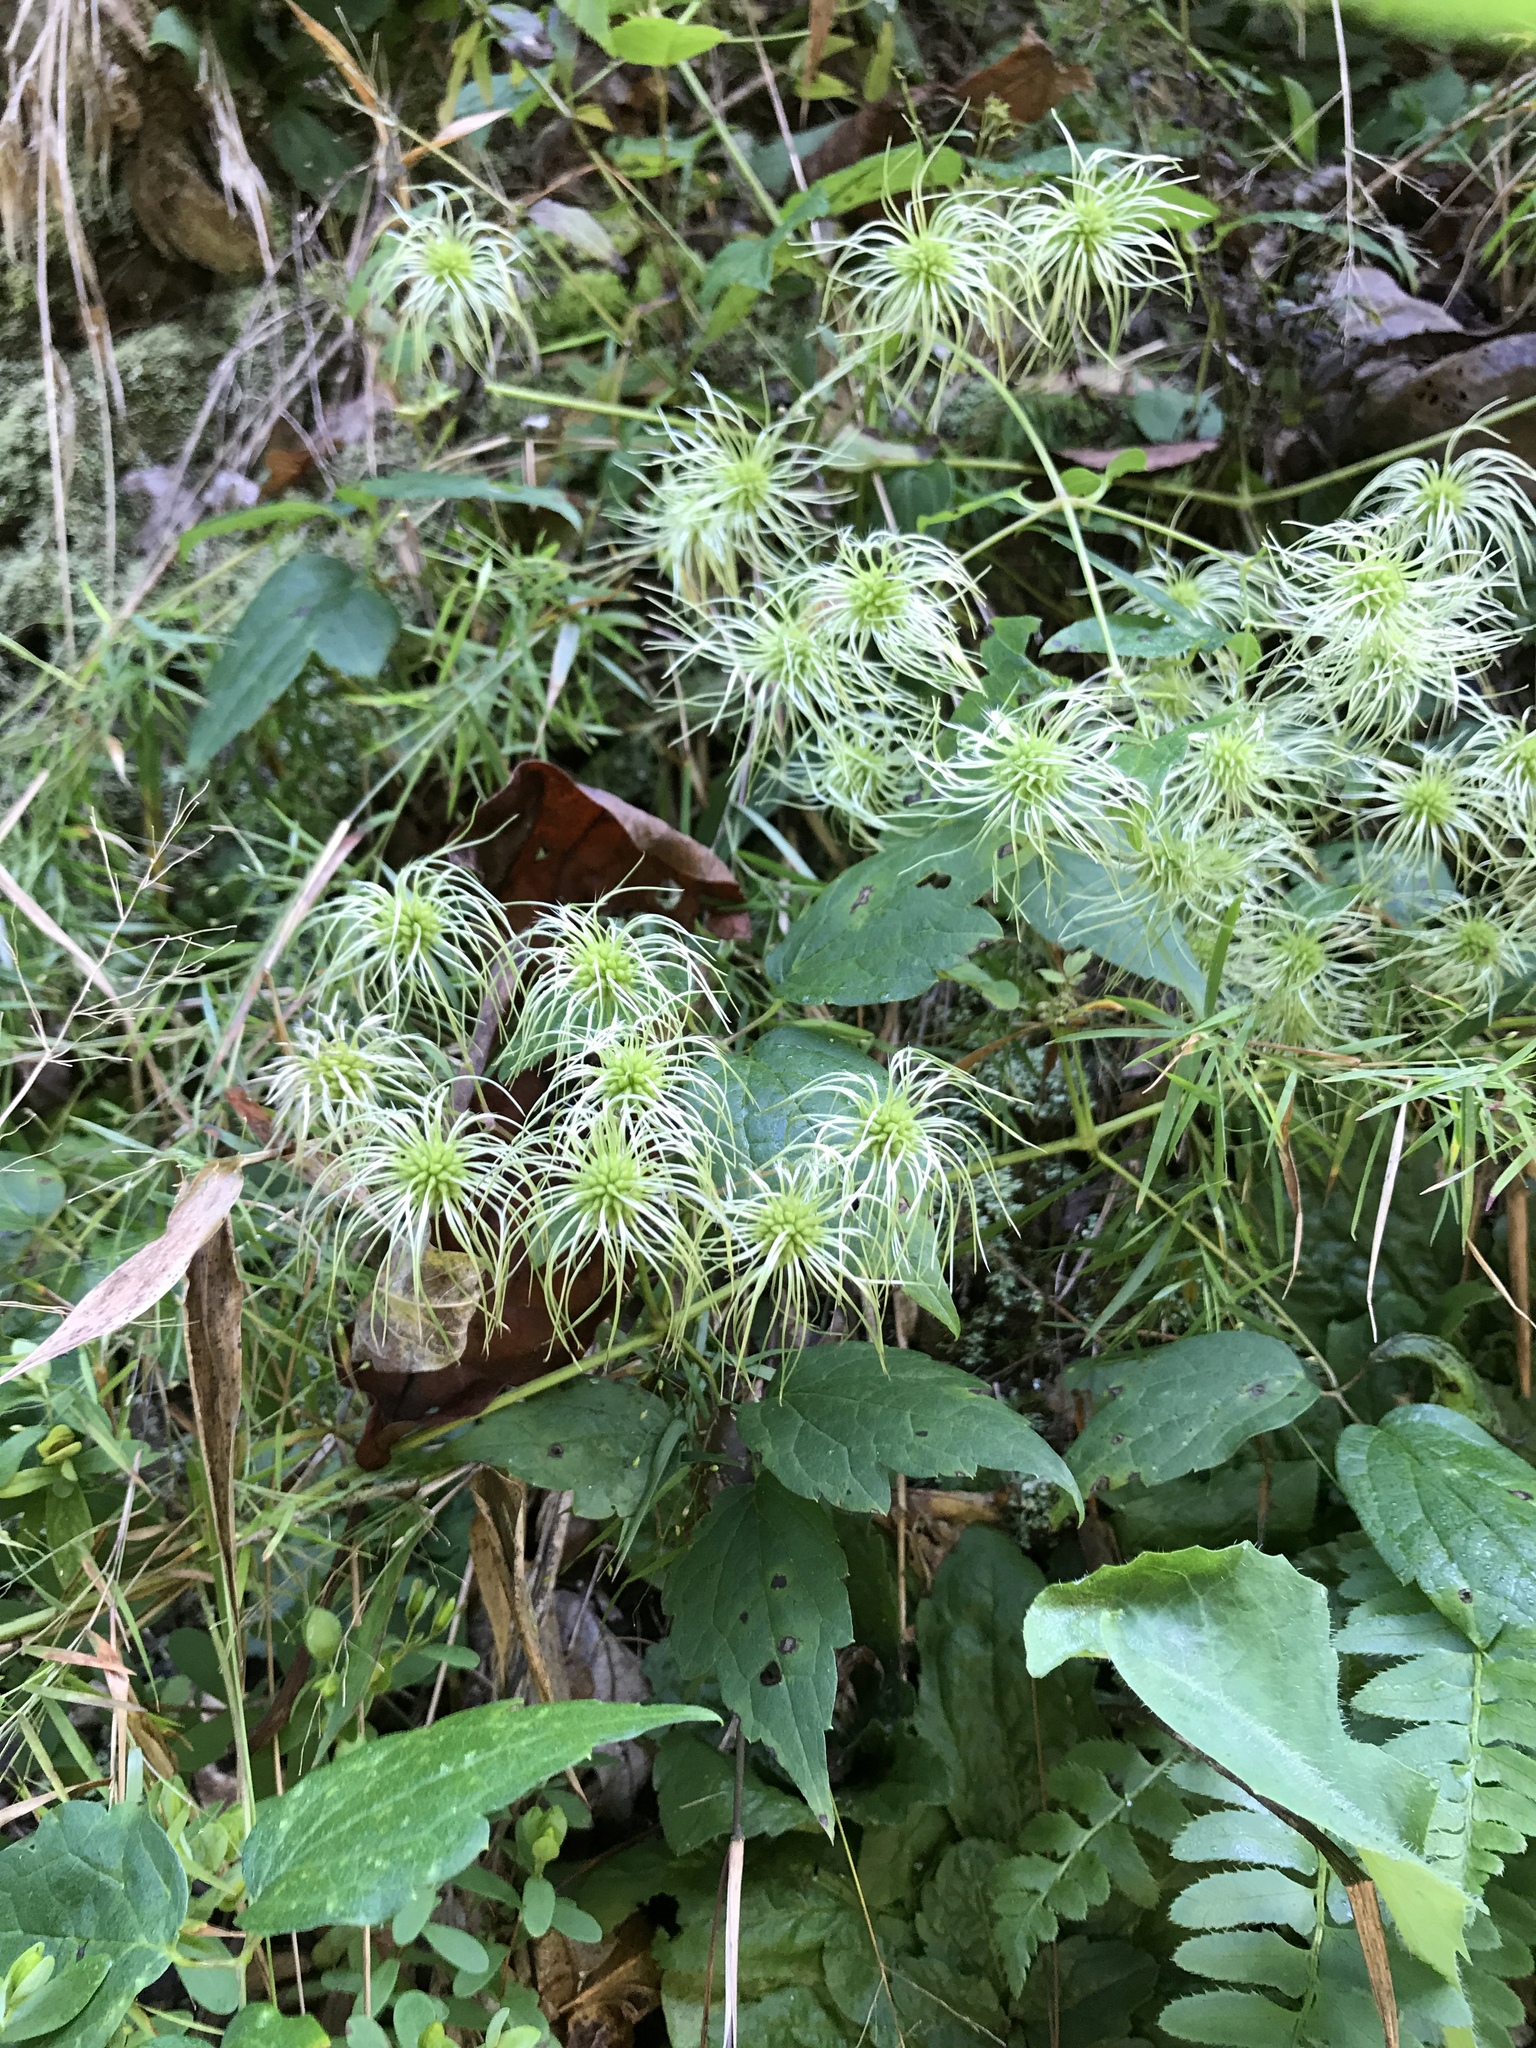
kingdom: Plantae
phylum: Tracheophyta
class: Magnoliopsida
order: Ranunculales
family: Ranunculaceae
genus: Clematis
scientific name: Clematis virginiana
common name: Virgin's-bower
